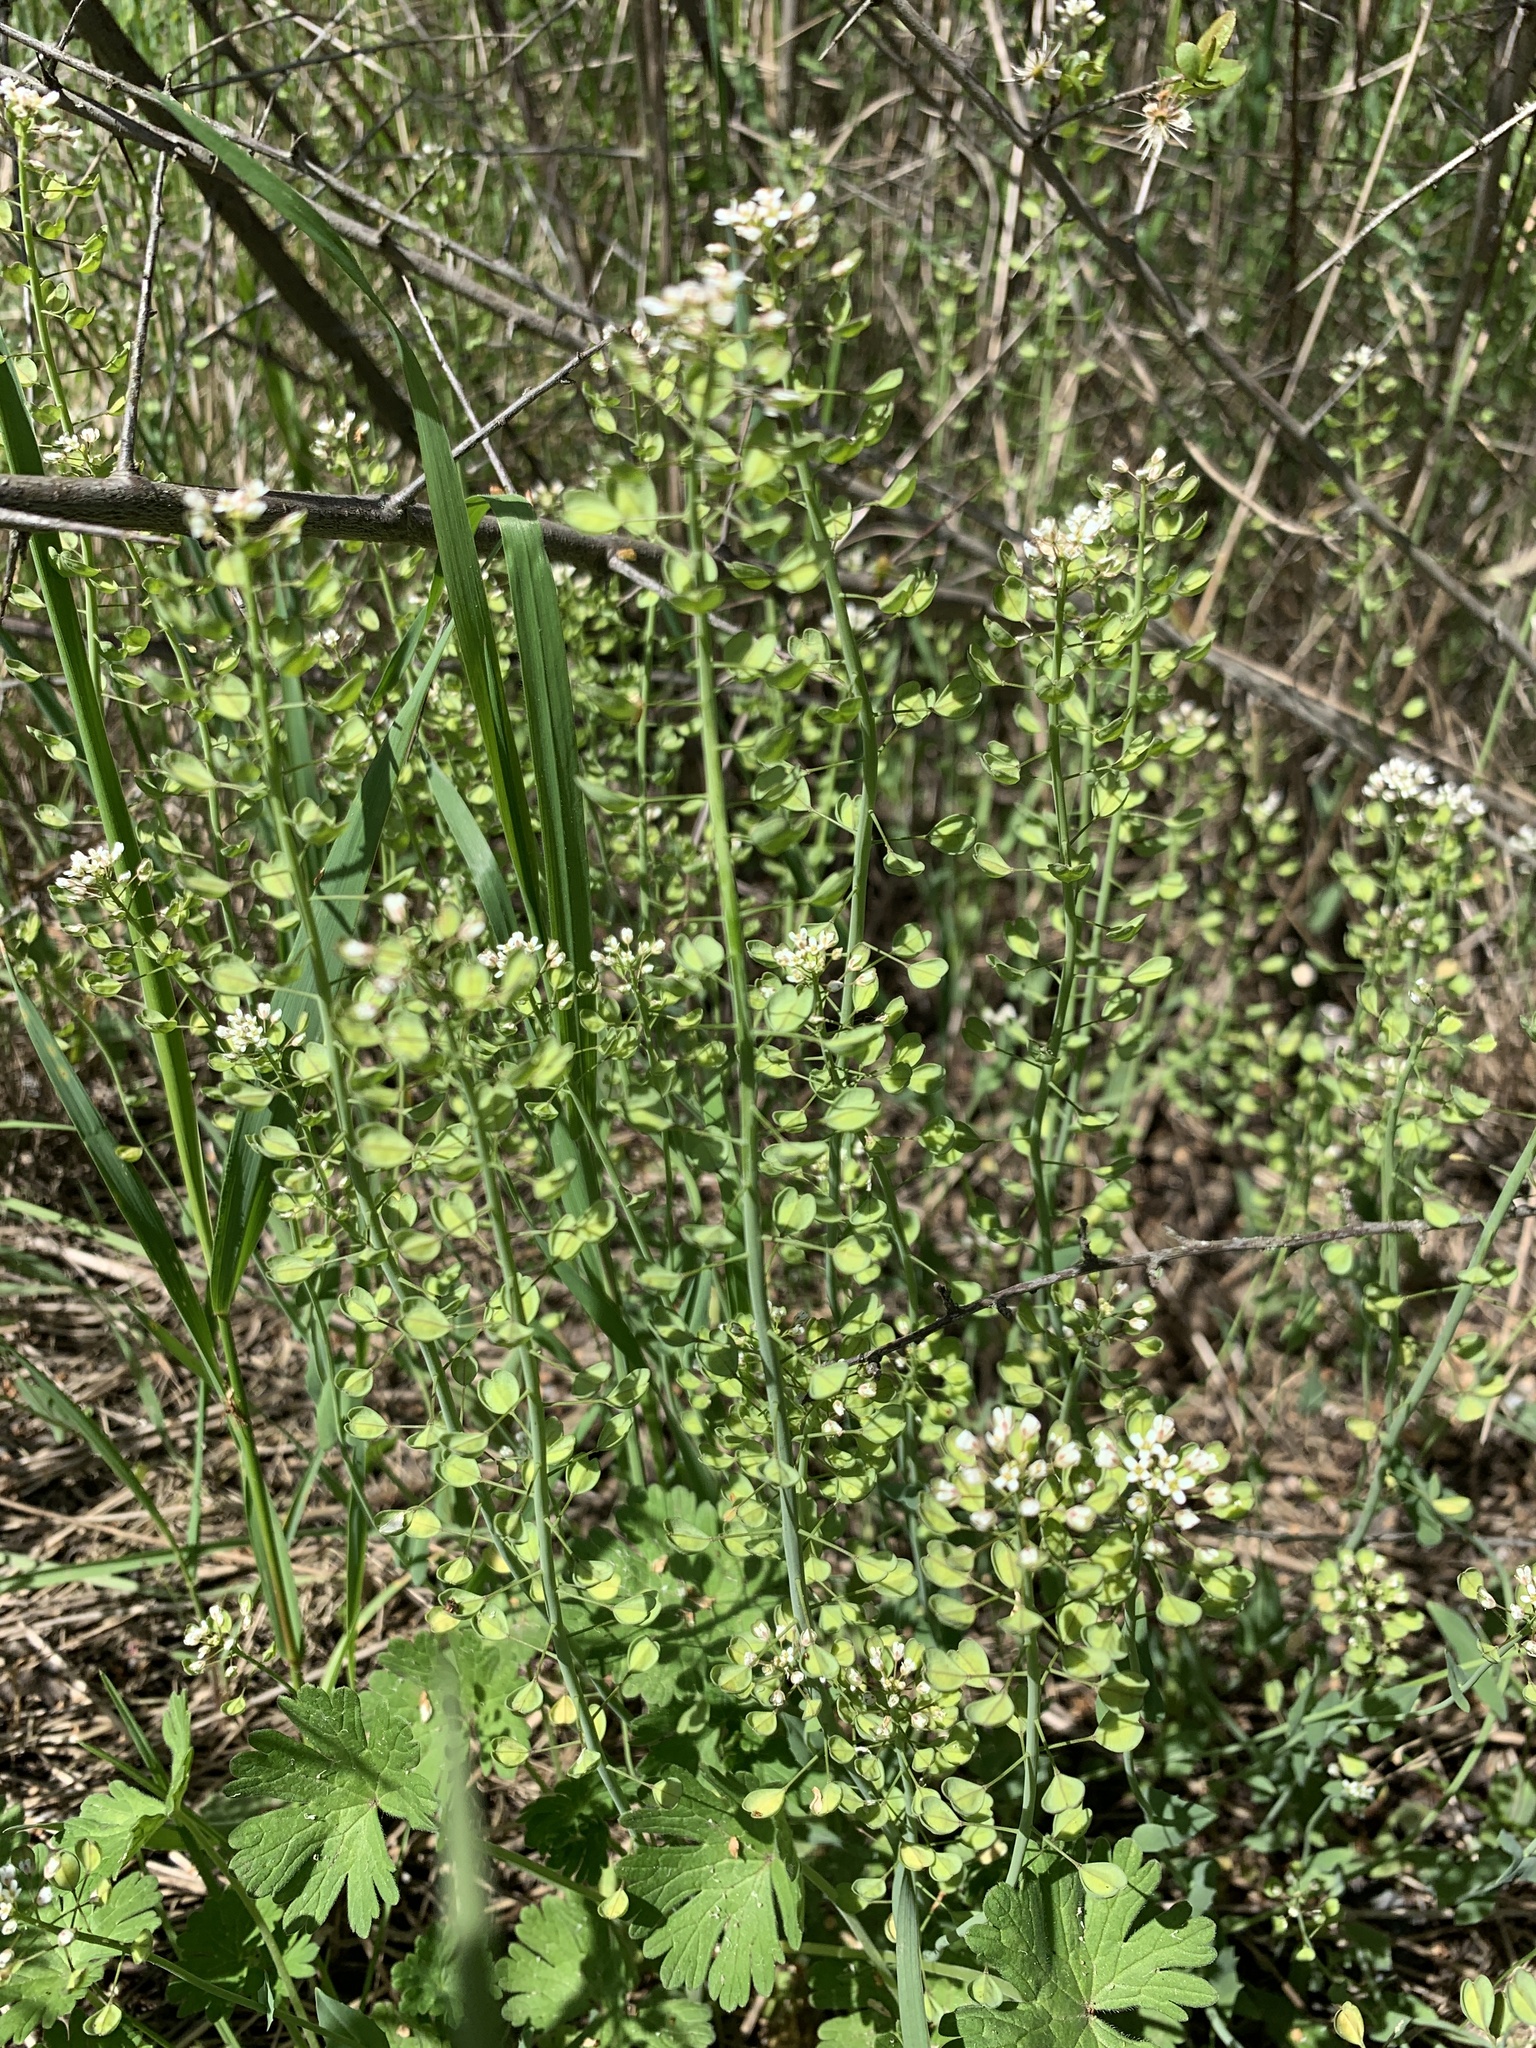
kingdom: Plantae
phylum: Tracheophyta
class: Magnoliopsida
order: Brassicales
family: Brassicaceae
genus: Noccaea
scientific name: Noccaea perfoliata
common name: Perfoliate pennycress
